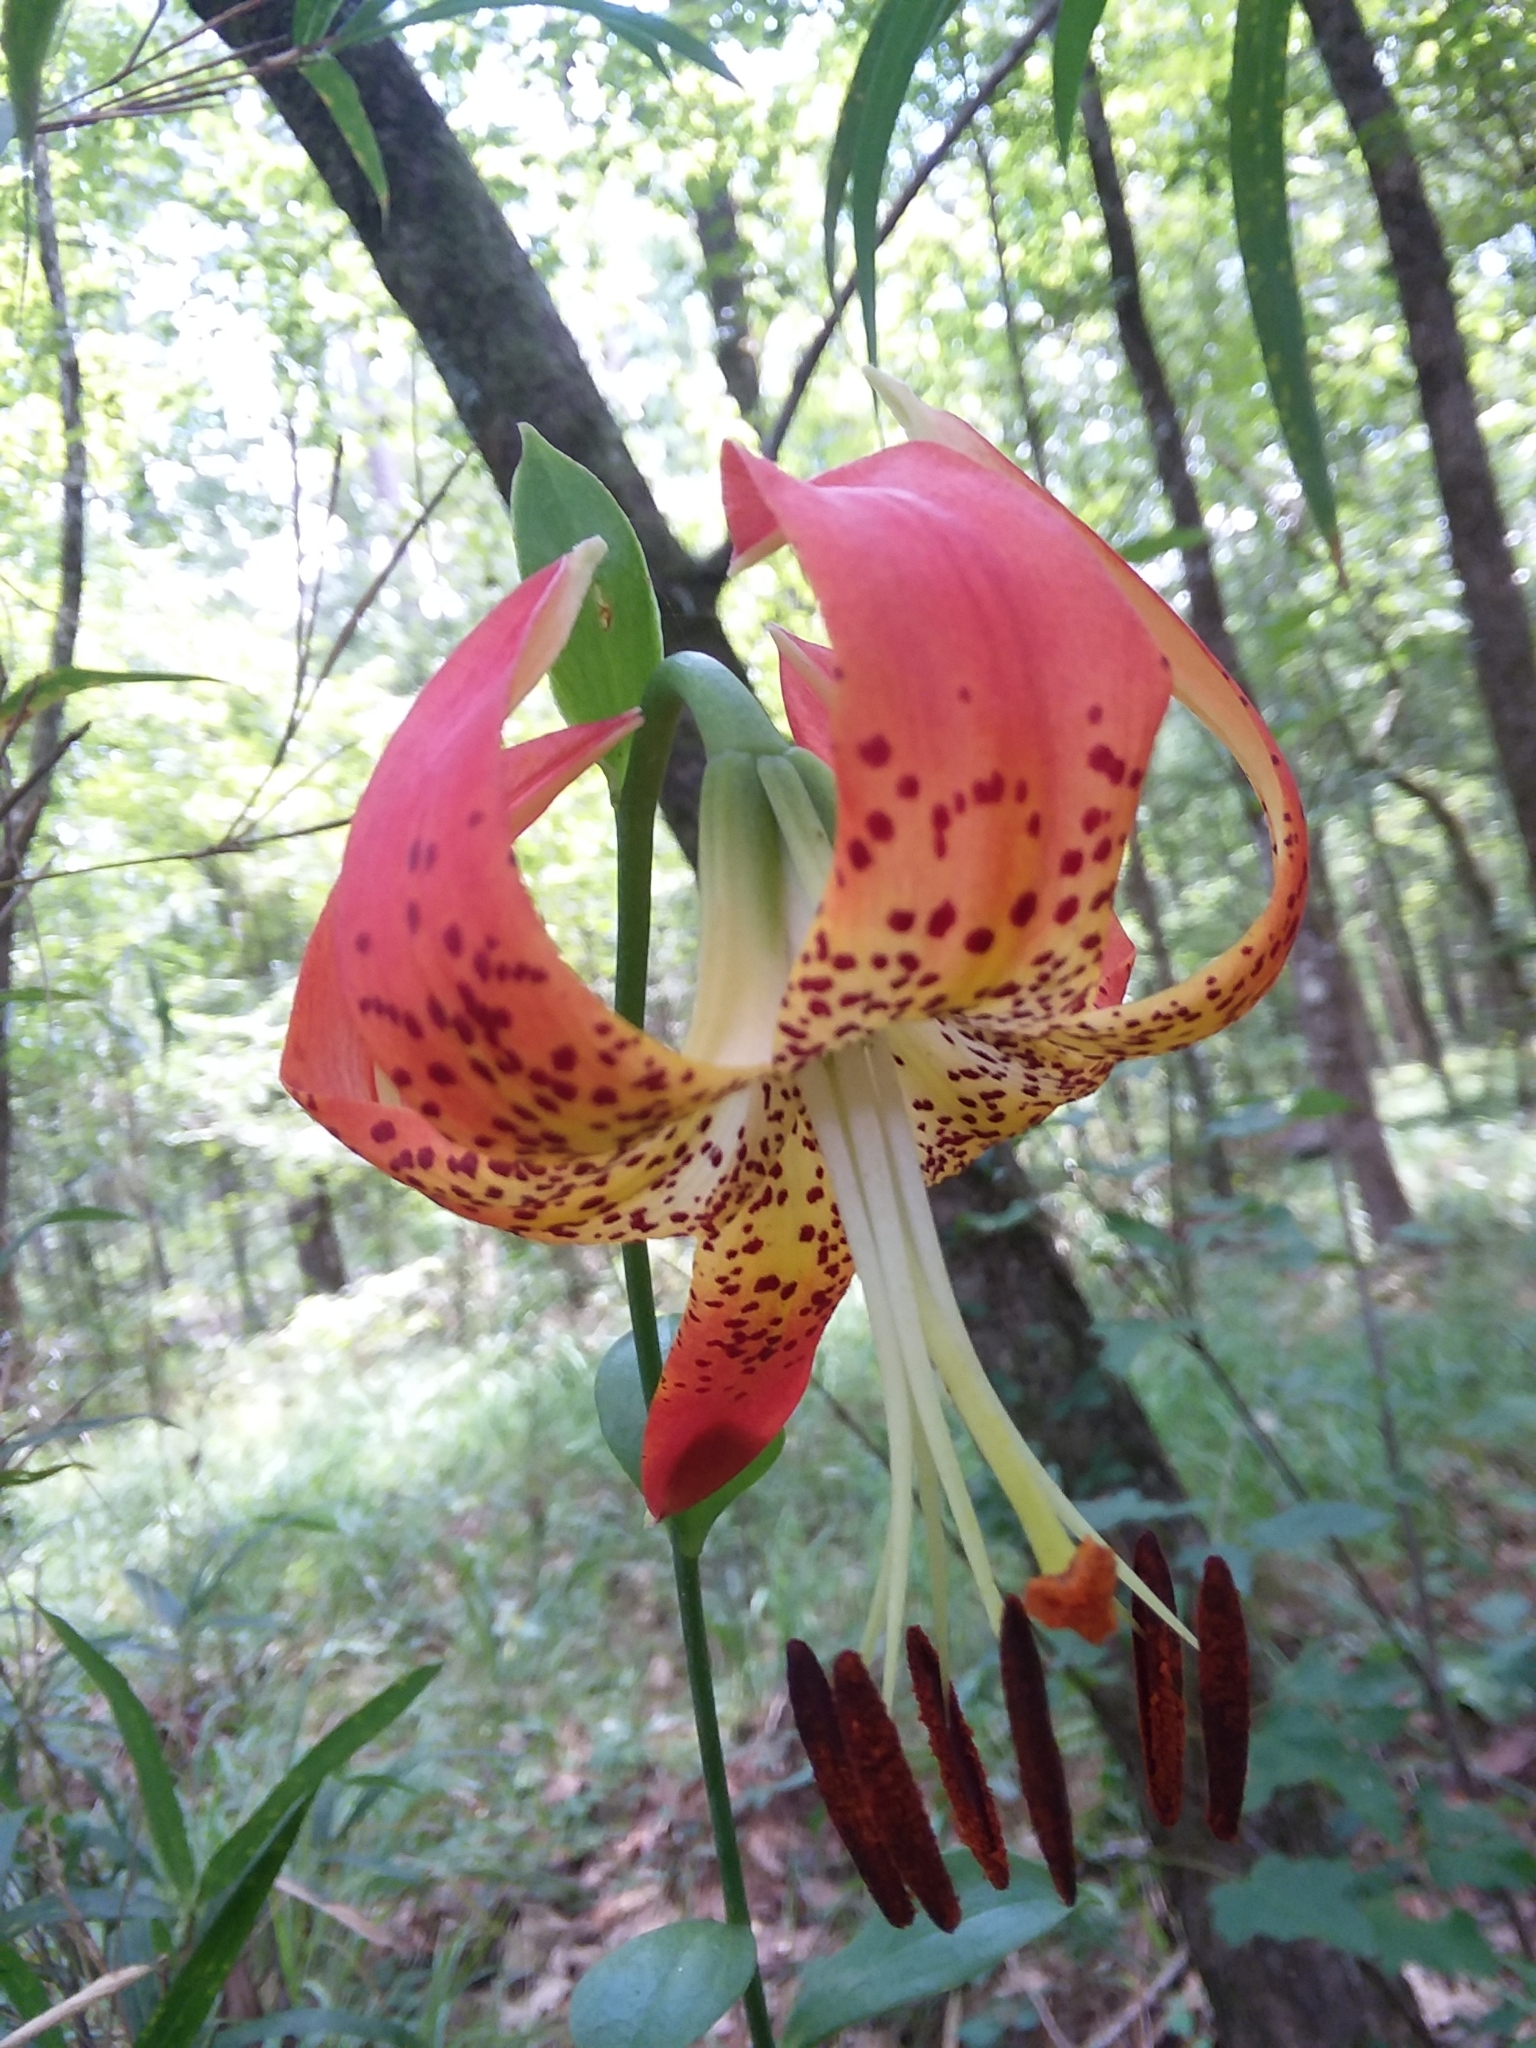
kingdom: Plantae
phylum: Tracheophyta
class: Liliopsida
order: Liliales
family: Liliaceae
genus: Lilium
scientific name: Lilium michauxii
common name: Carolina lily
